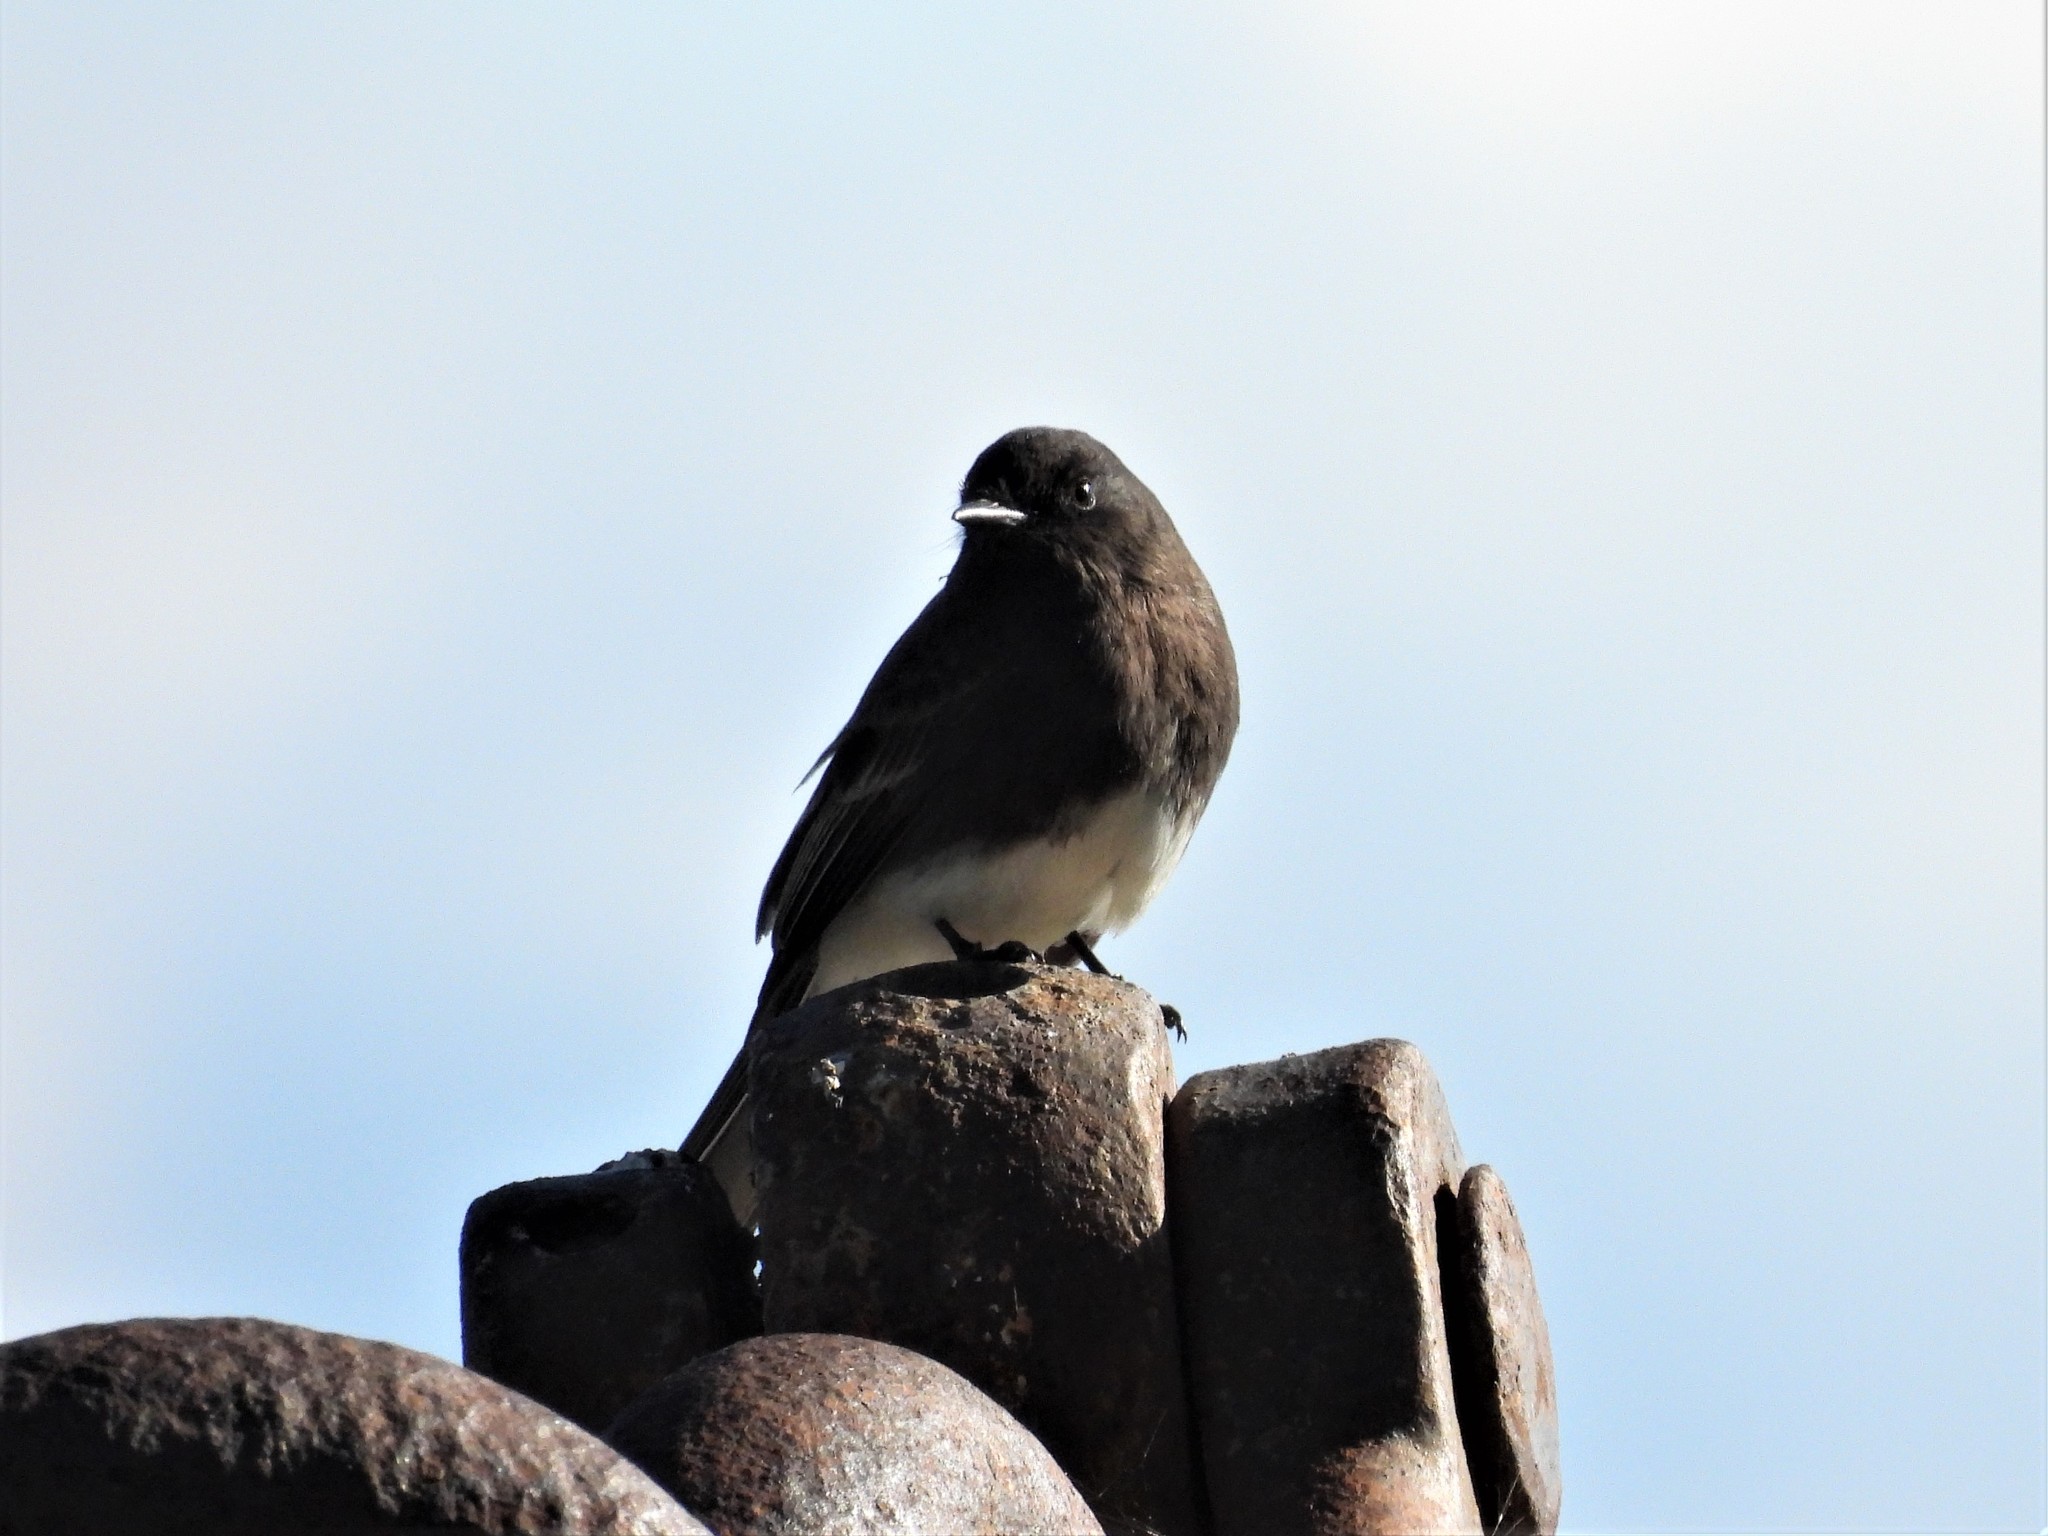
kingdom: Animalia
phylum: Chordata
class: Aves
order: Passeriformes
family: Tyrannidae
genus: Sayornis
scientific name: Sayornis nigricans
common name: Black phoebe
